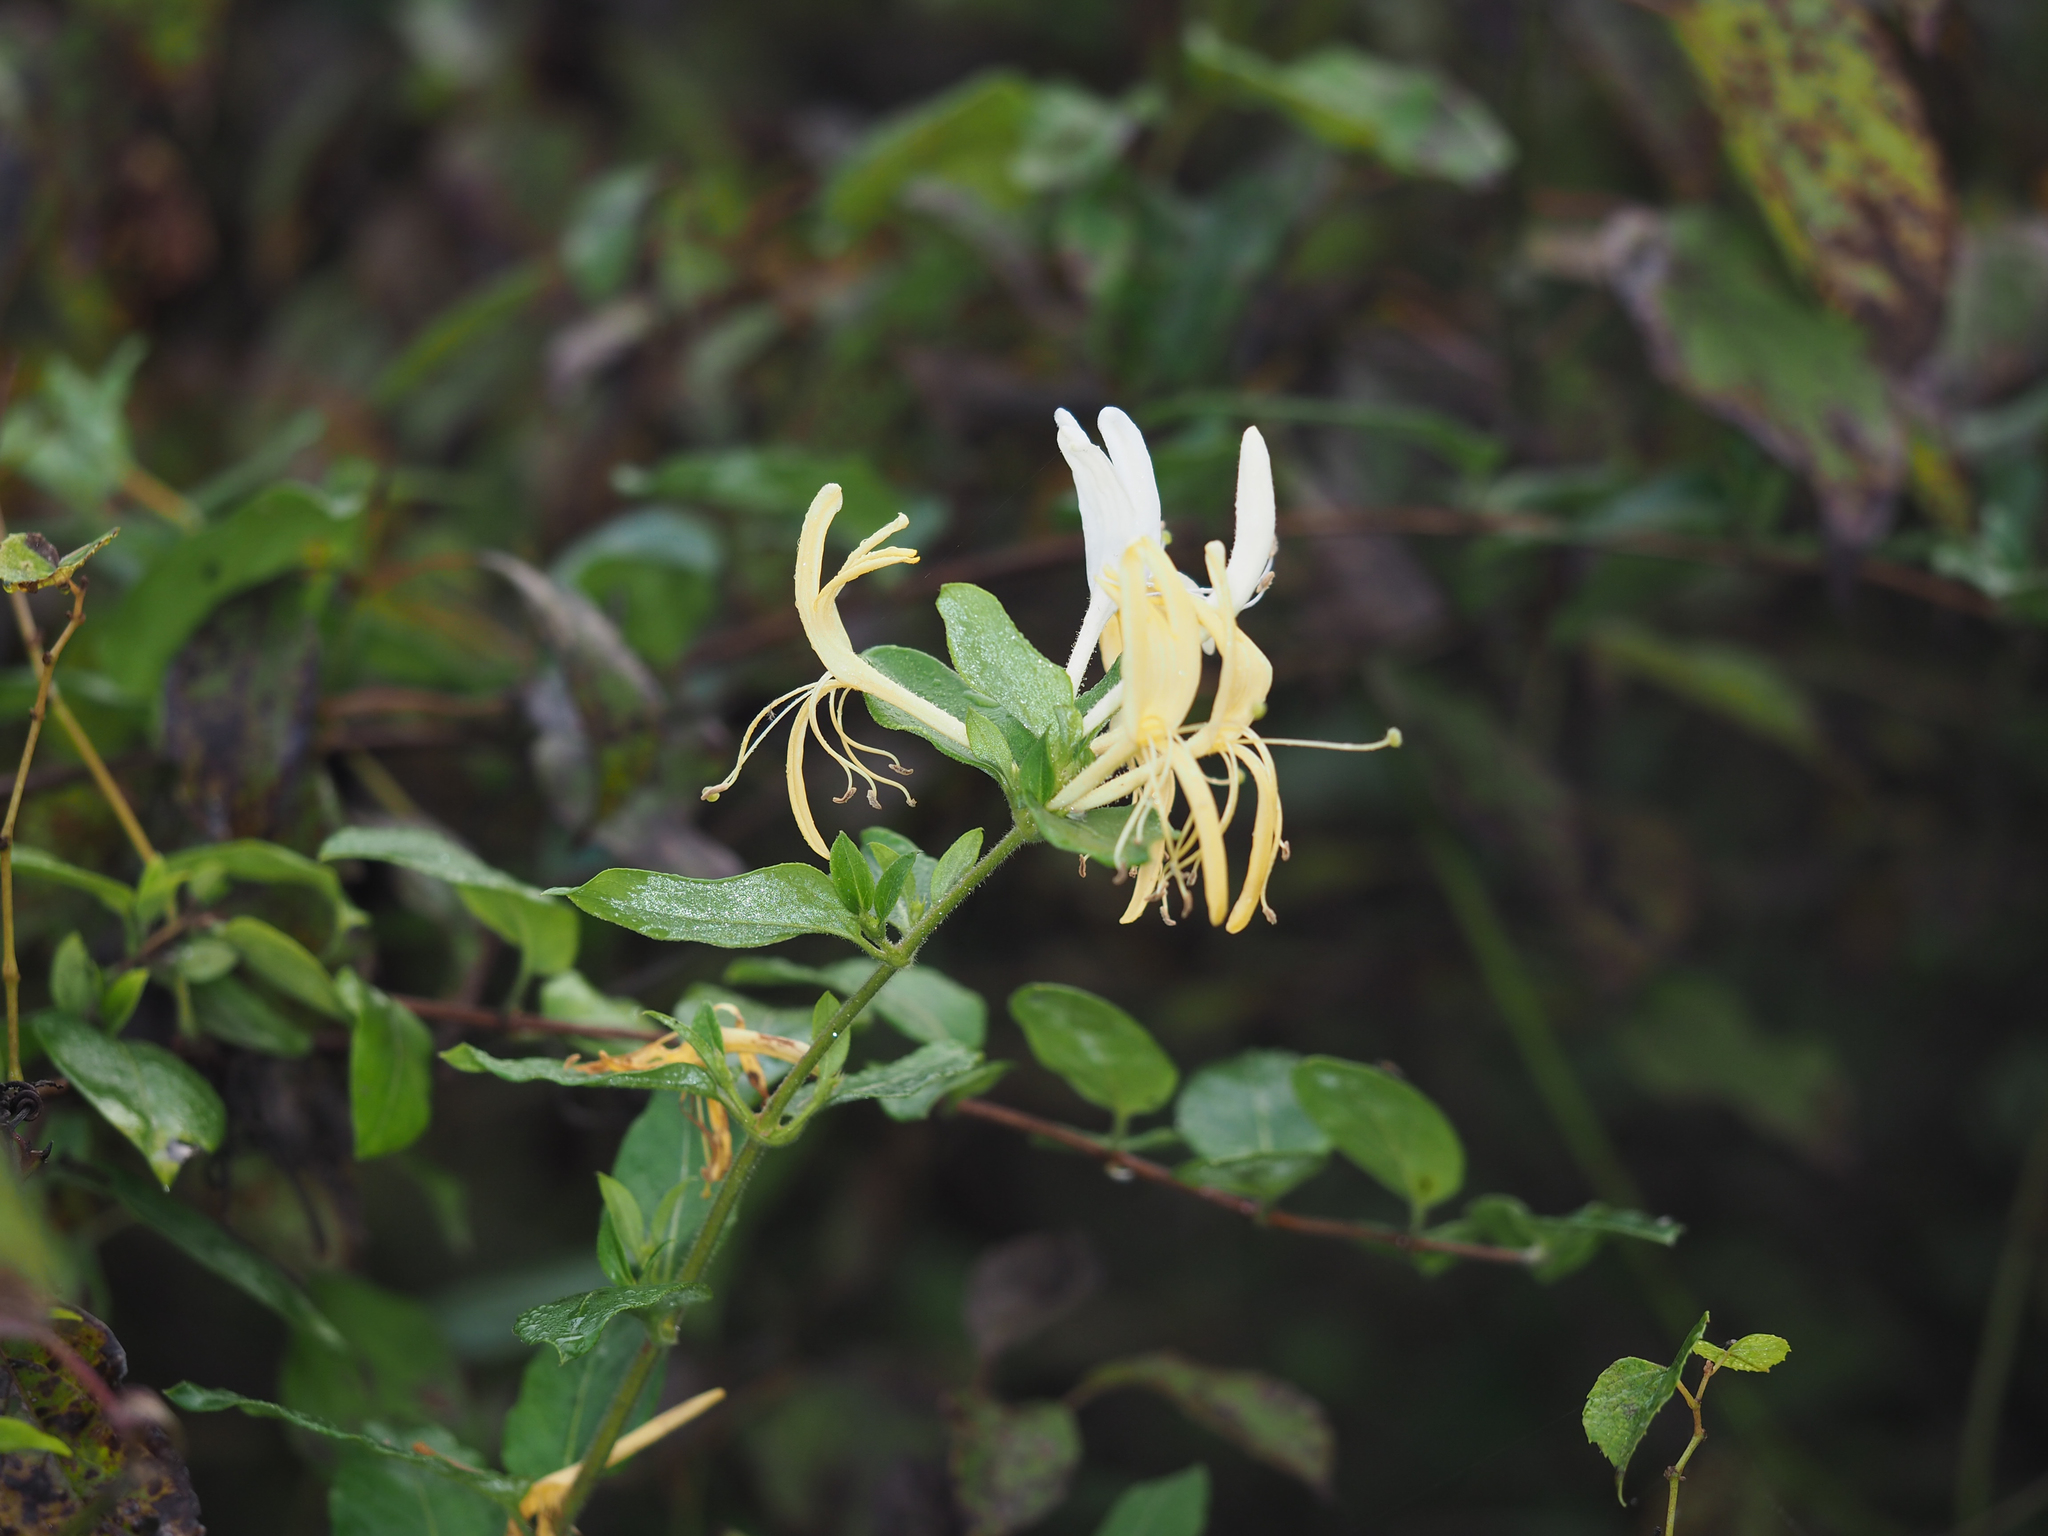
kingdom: Plantae
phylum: Tracheophyta
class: Magnoliopsida
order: Dipsacales
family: Caprifoliaceae
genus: Lonicera
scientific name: Lonicera japonica
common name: Japanese honeysuckle
